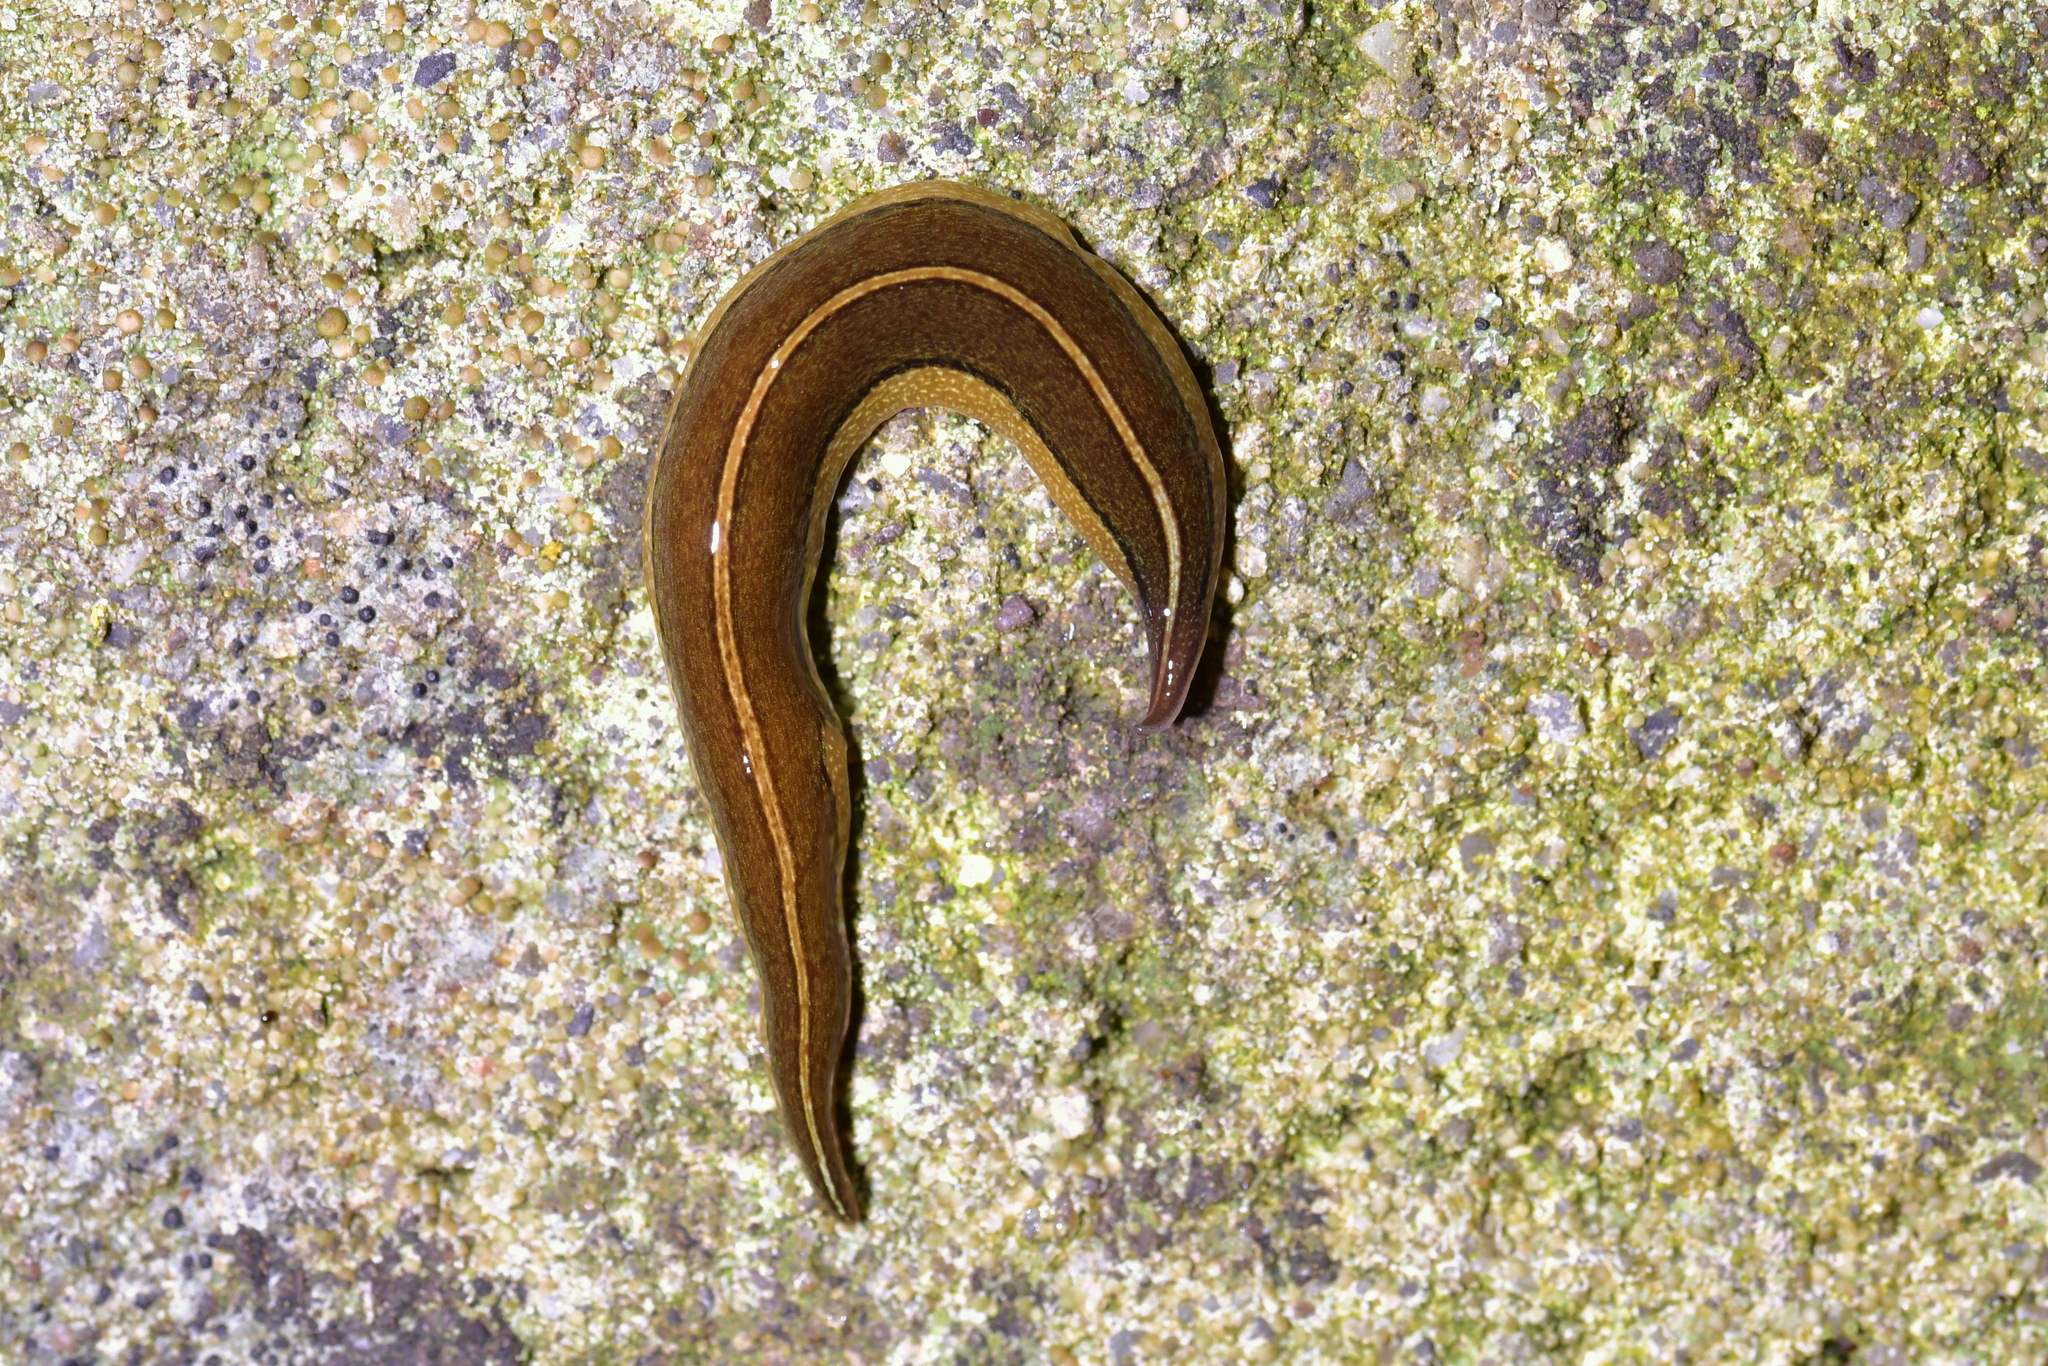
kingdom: Animalia
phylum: Platyhelminthes
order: Tricladida
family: Geoplanidae
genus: Newzealandia
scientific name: Newzealandia graffii
